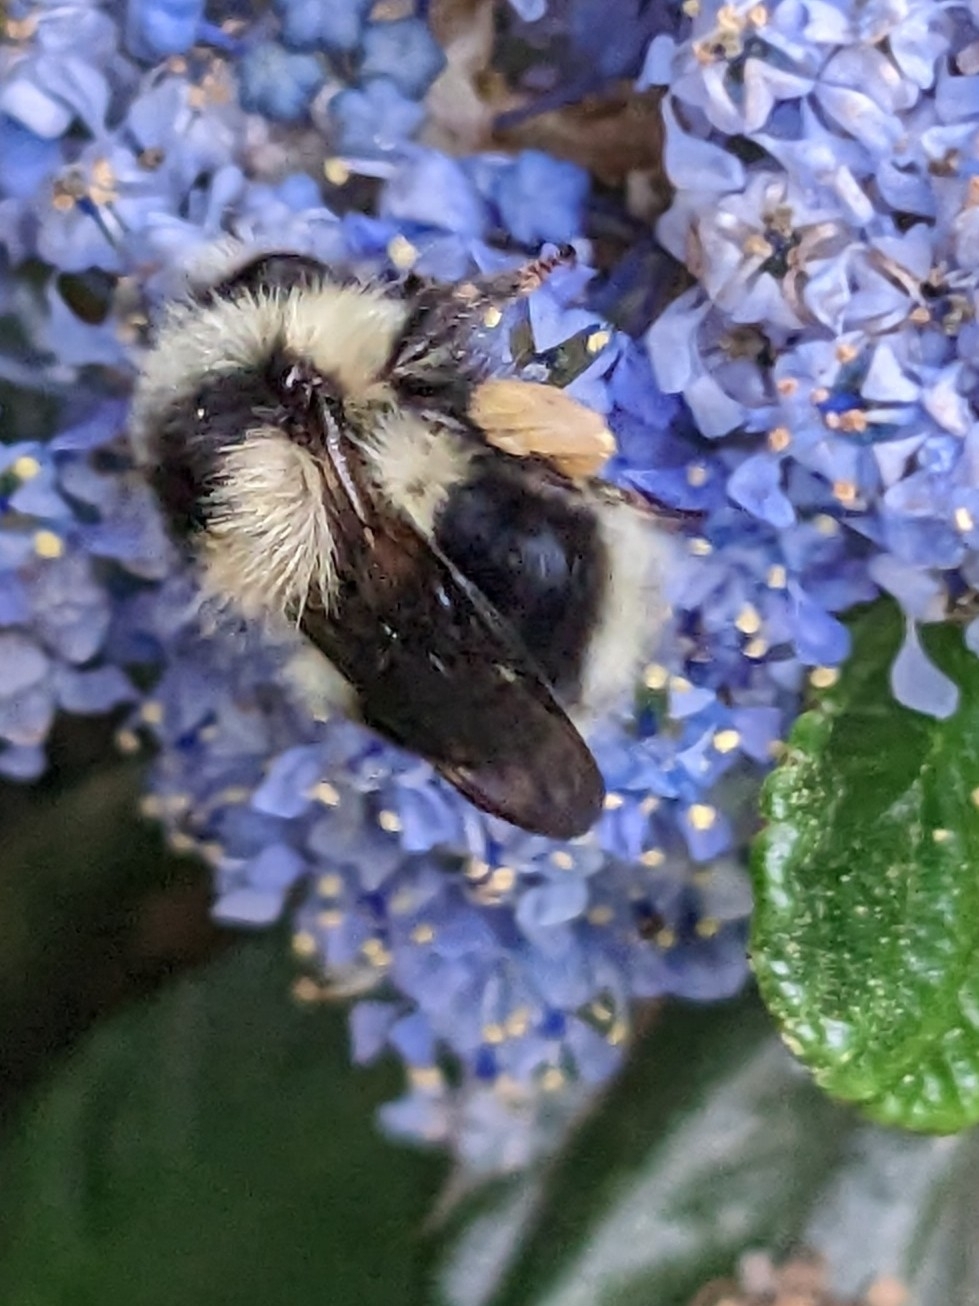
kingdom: Animalia
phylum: Arthropoda
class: Insecta
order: Hymenoptera
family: Apidae
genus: Bombus
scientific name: Bombus melanopygus
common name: Black tail bumble bee
